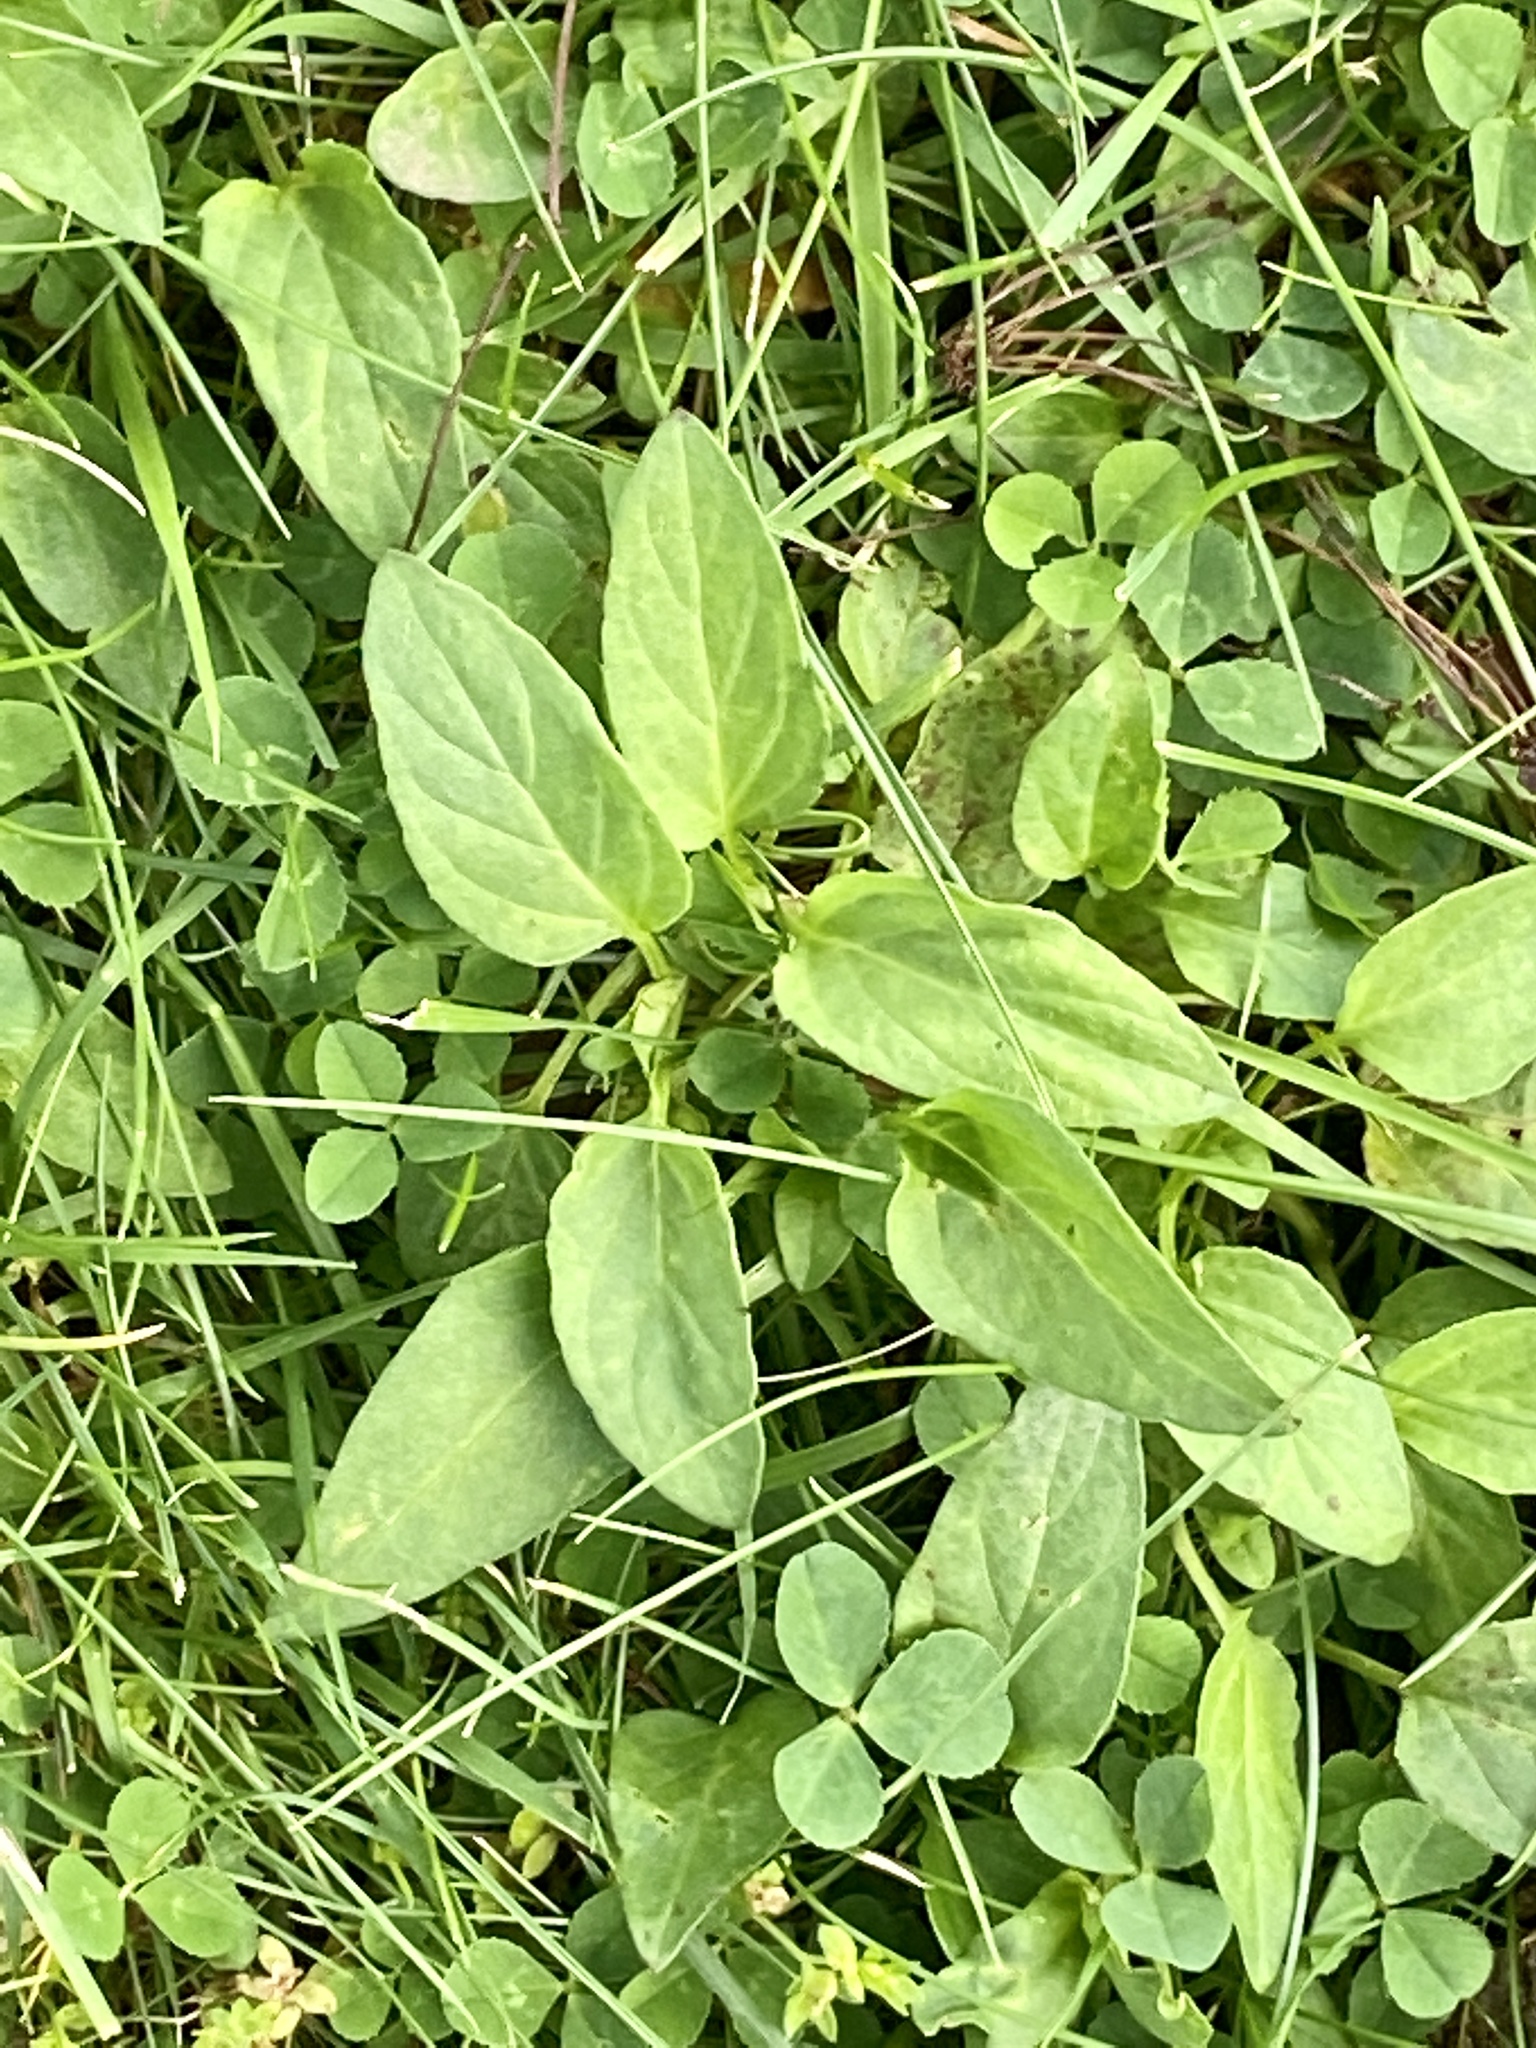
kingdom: Plantae
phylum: Tracheophyta
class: Magnoliopsida
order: Lamiales
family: Lamiaceae
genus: Prunella
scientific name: Prunella vulgaris
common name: Heal-all
